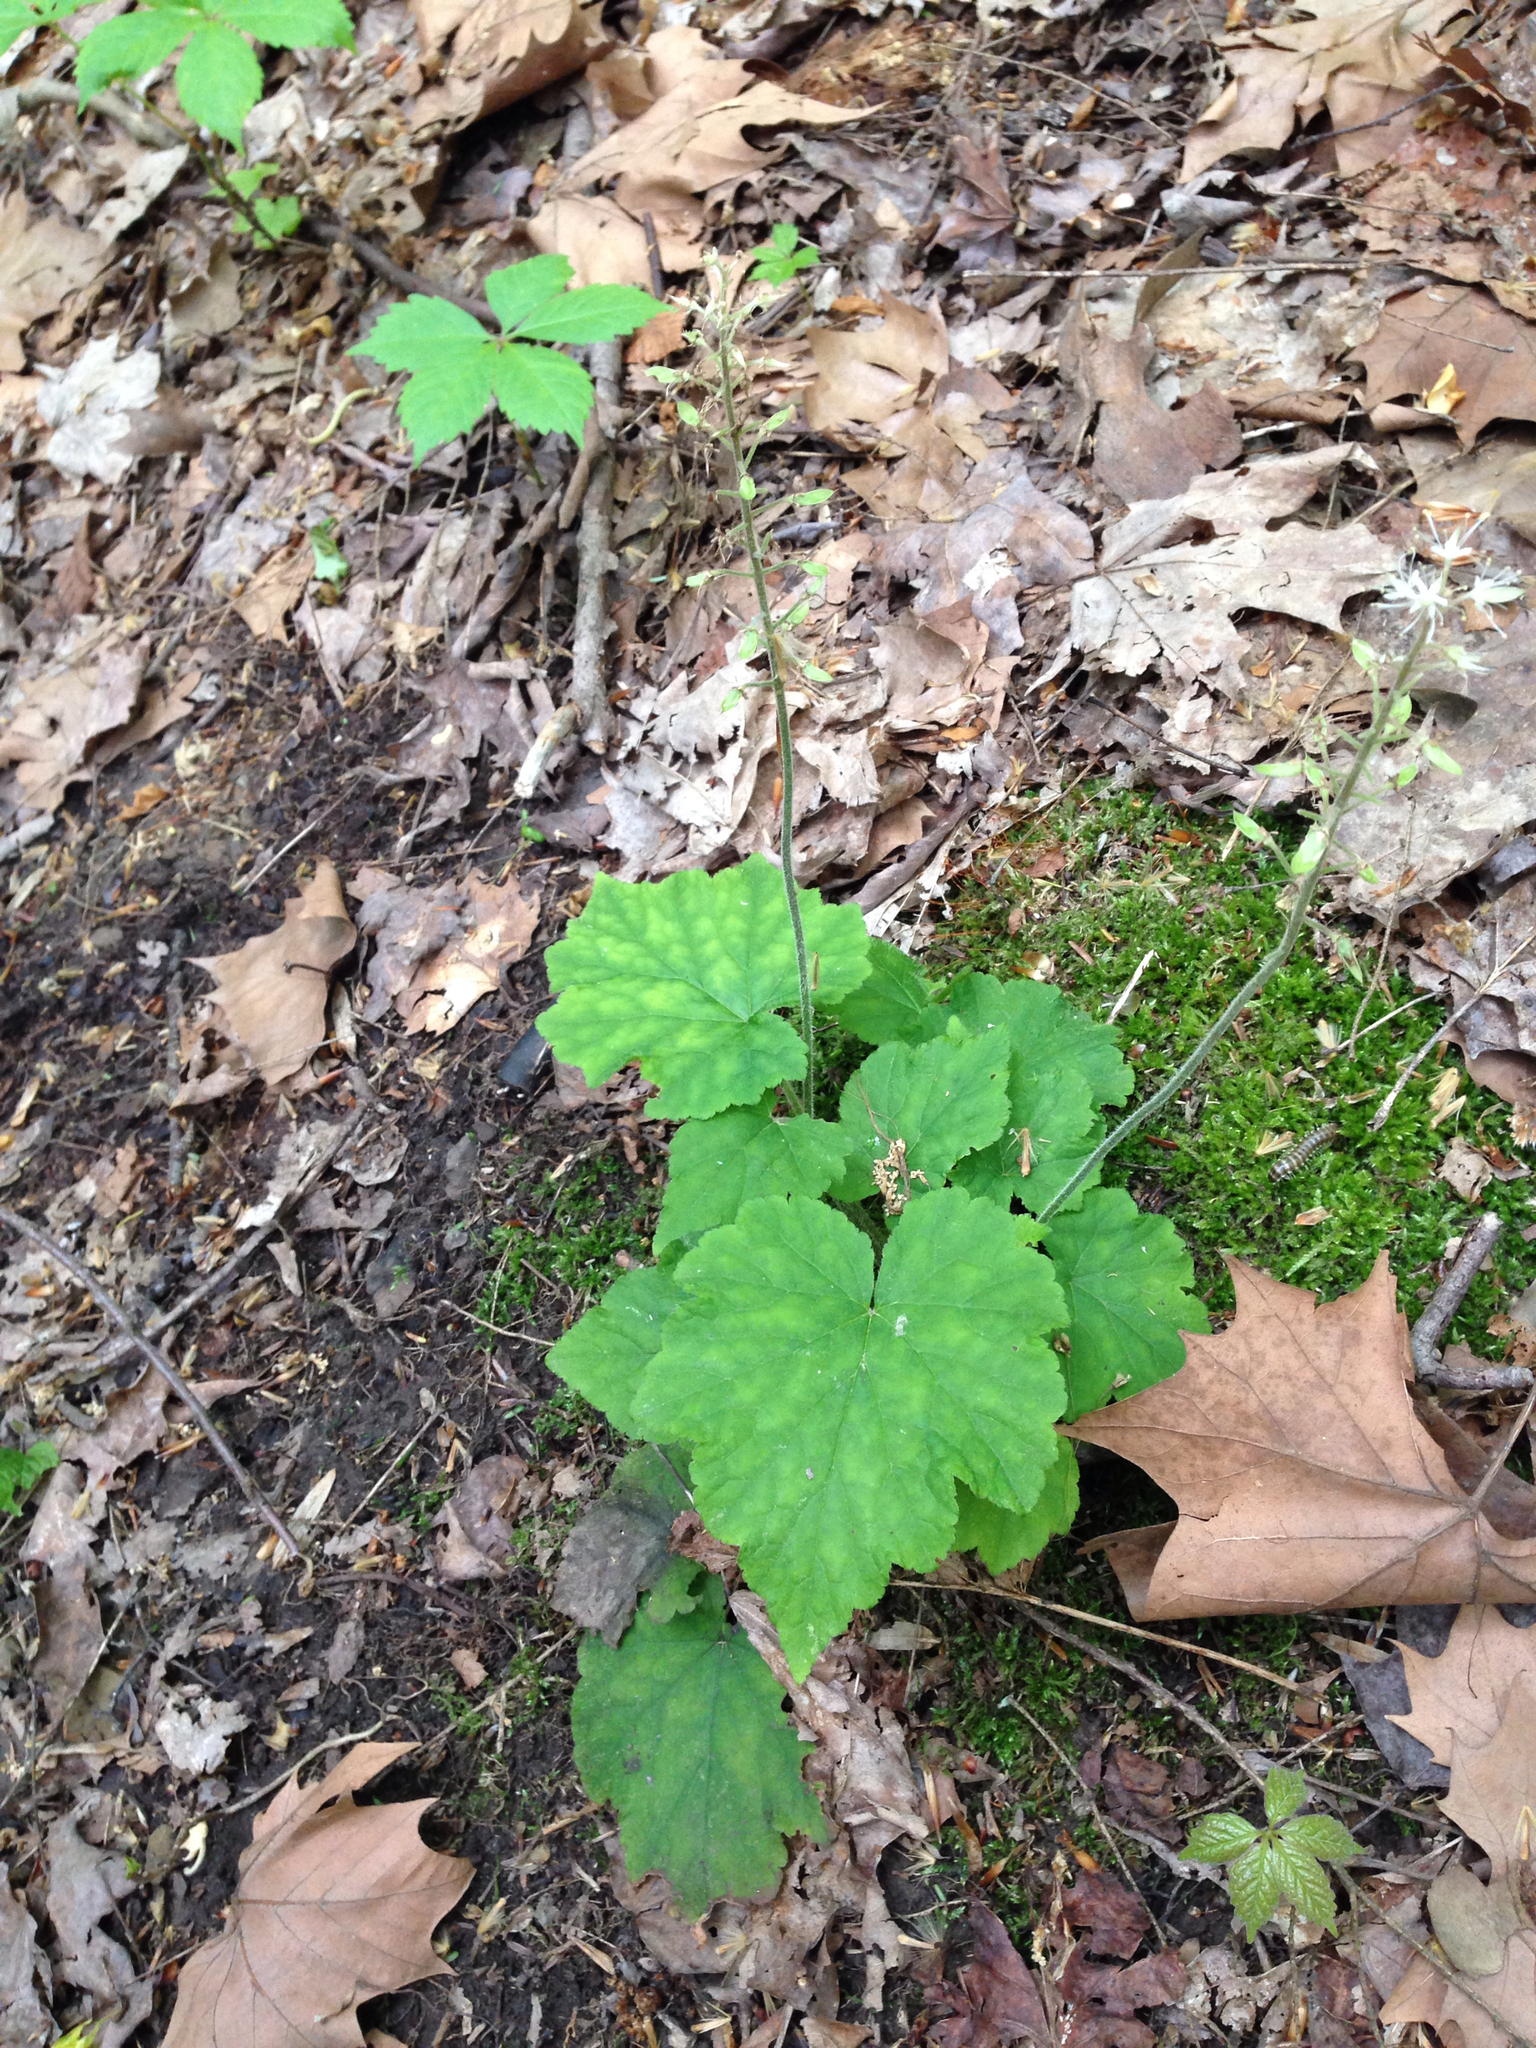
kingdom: Plantae
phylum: Tracheophyta
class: Magnoliopsida
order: Saxifragales
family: Saxifragaceae
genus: Tiarella
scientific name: Tiarella stolonifera
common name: Stoloniferous foamflower
